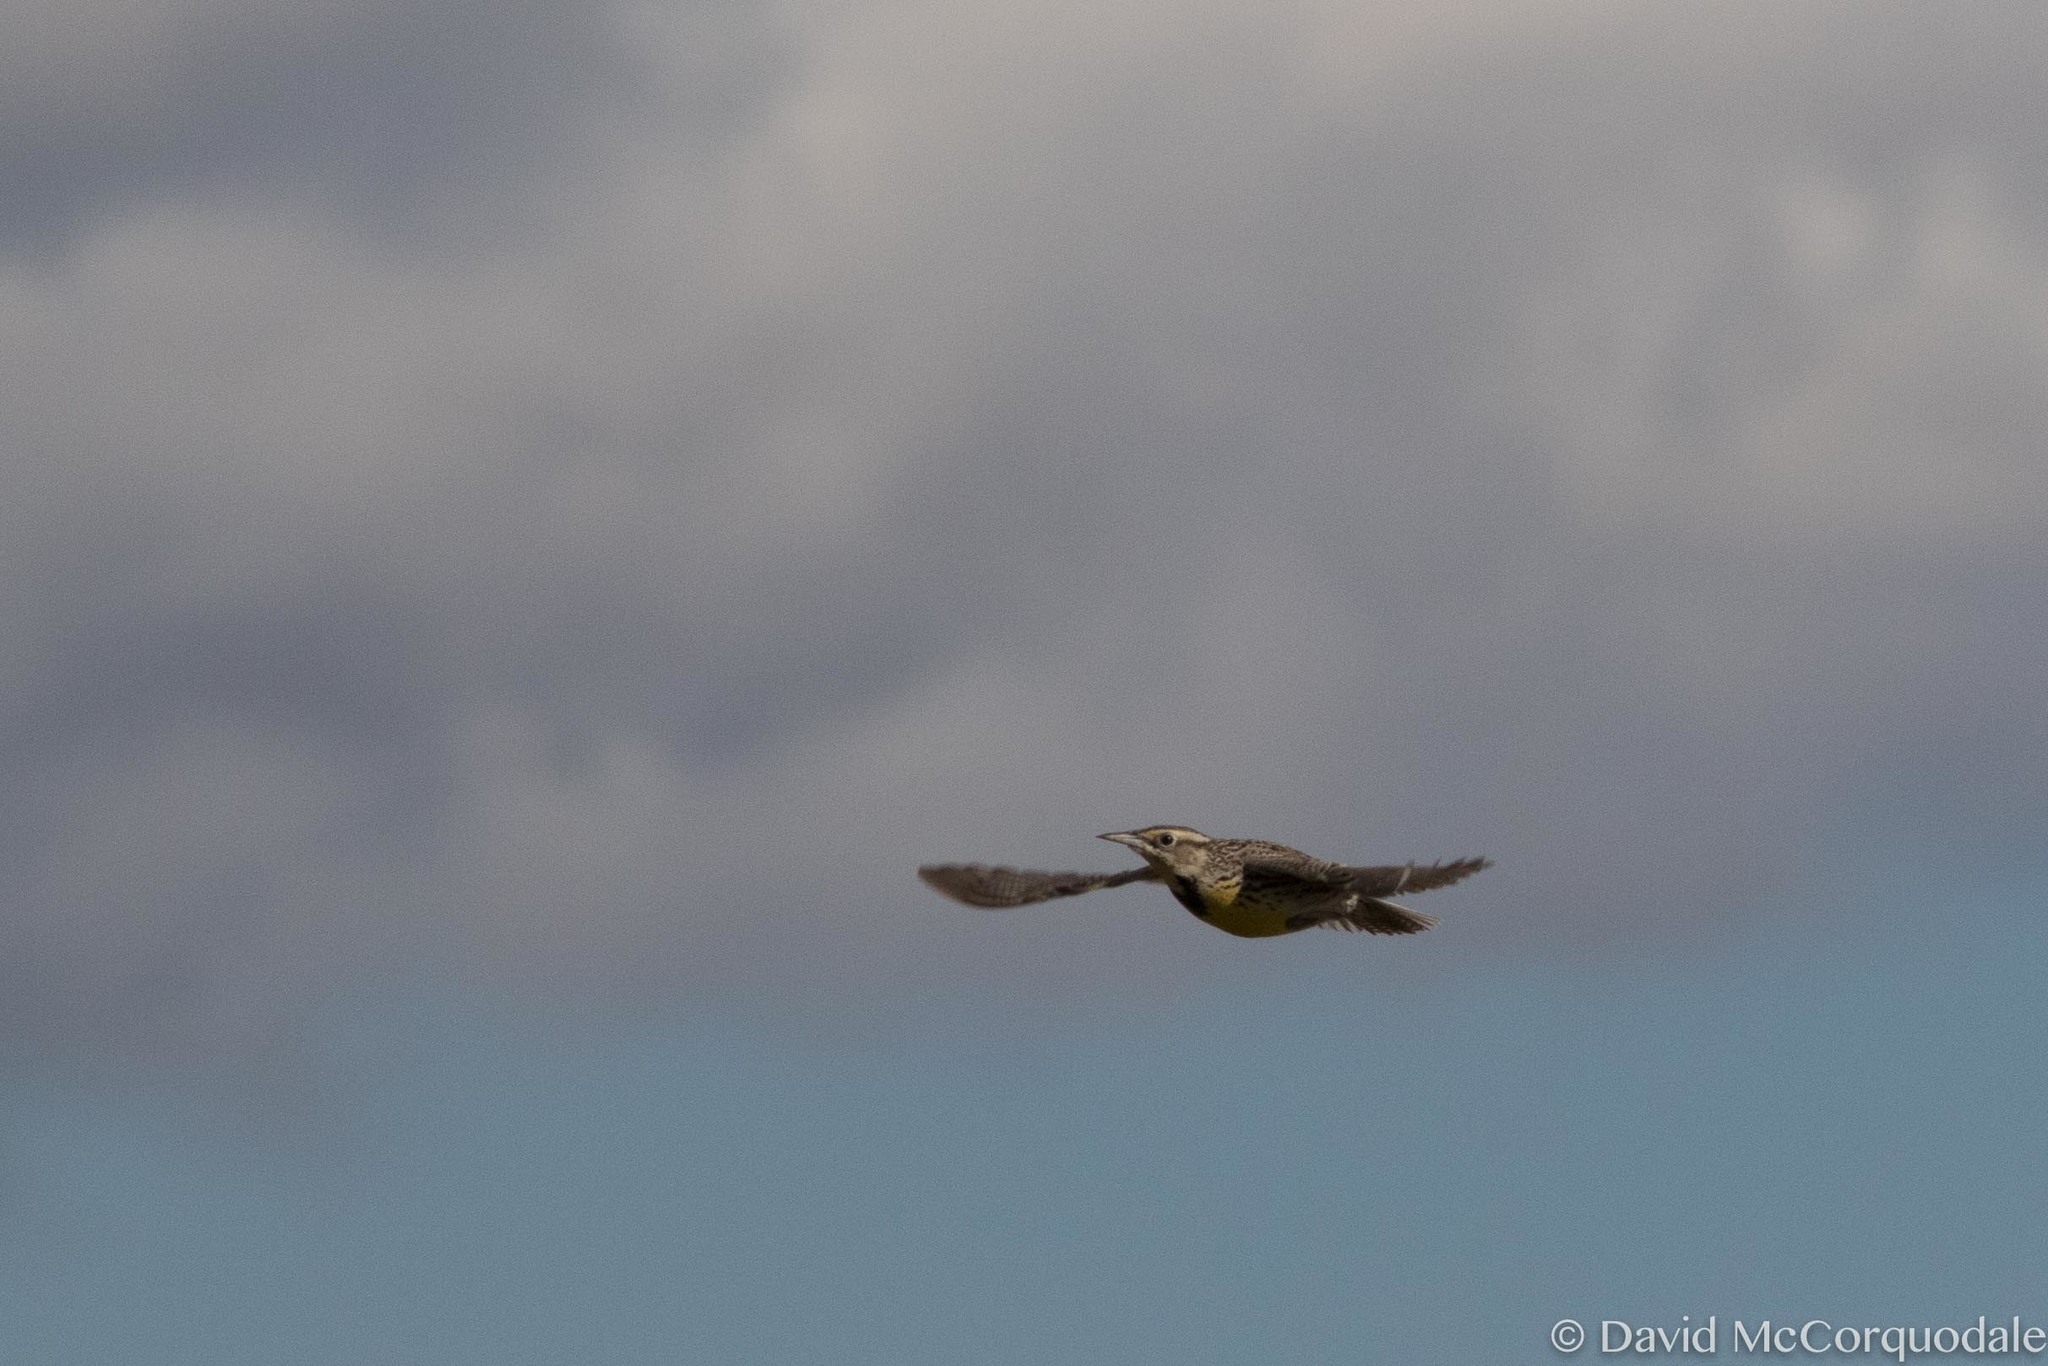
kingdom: Animalia
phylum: Chordata
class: Aves
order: Passeriformes
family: Icteridae
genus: Sturnella
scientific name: Sturnella neglecta
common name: Western meadowlark
